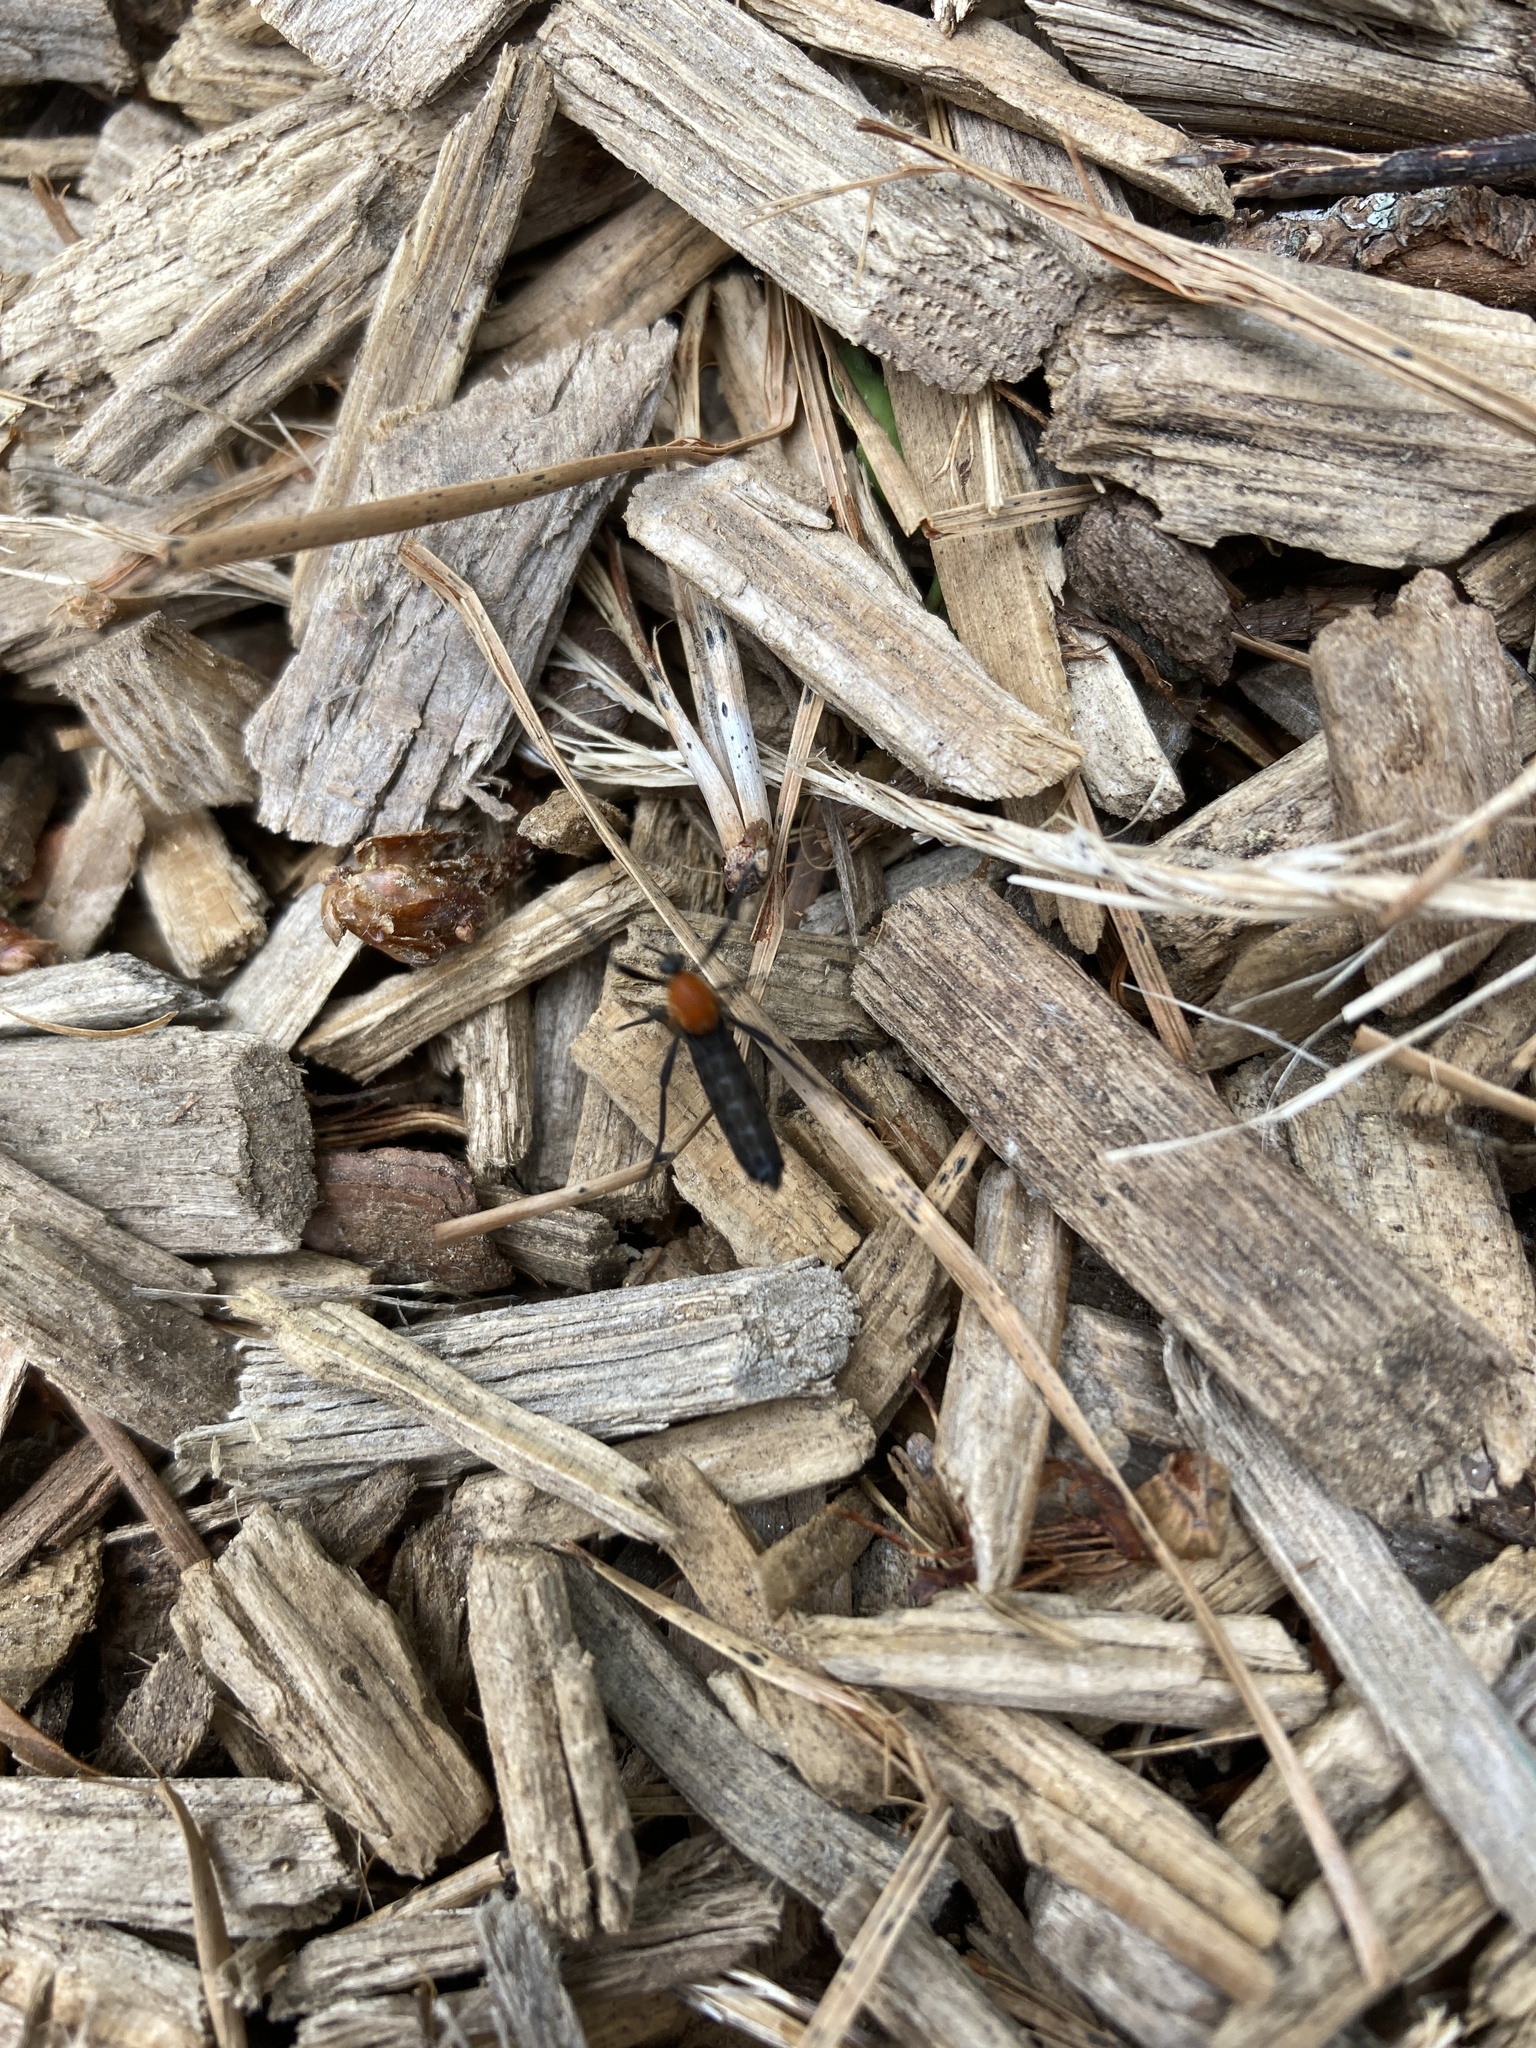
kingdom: Animalia
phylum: Arthropoda
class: Insecta
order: Diptera
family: Bibionidae
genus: Plecia
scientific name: Plecia americana
